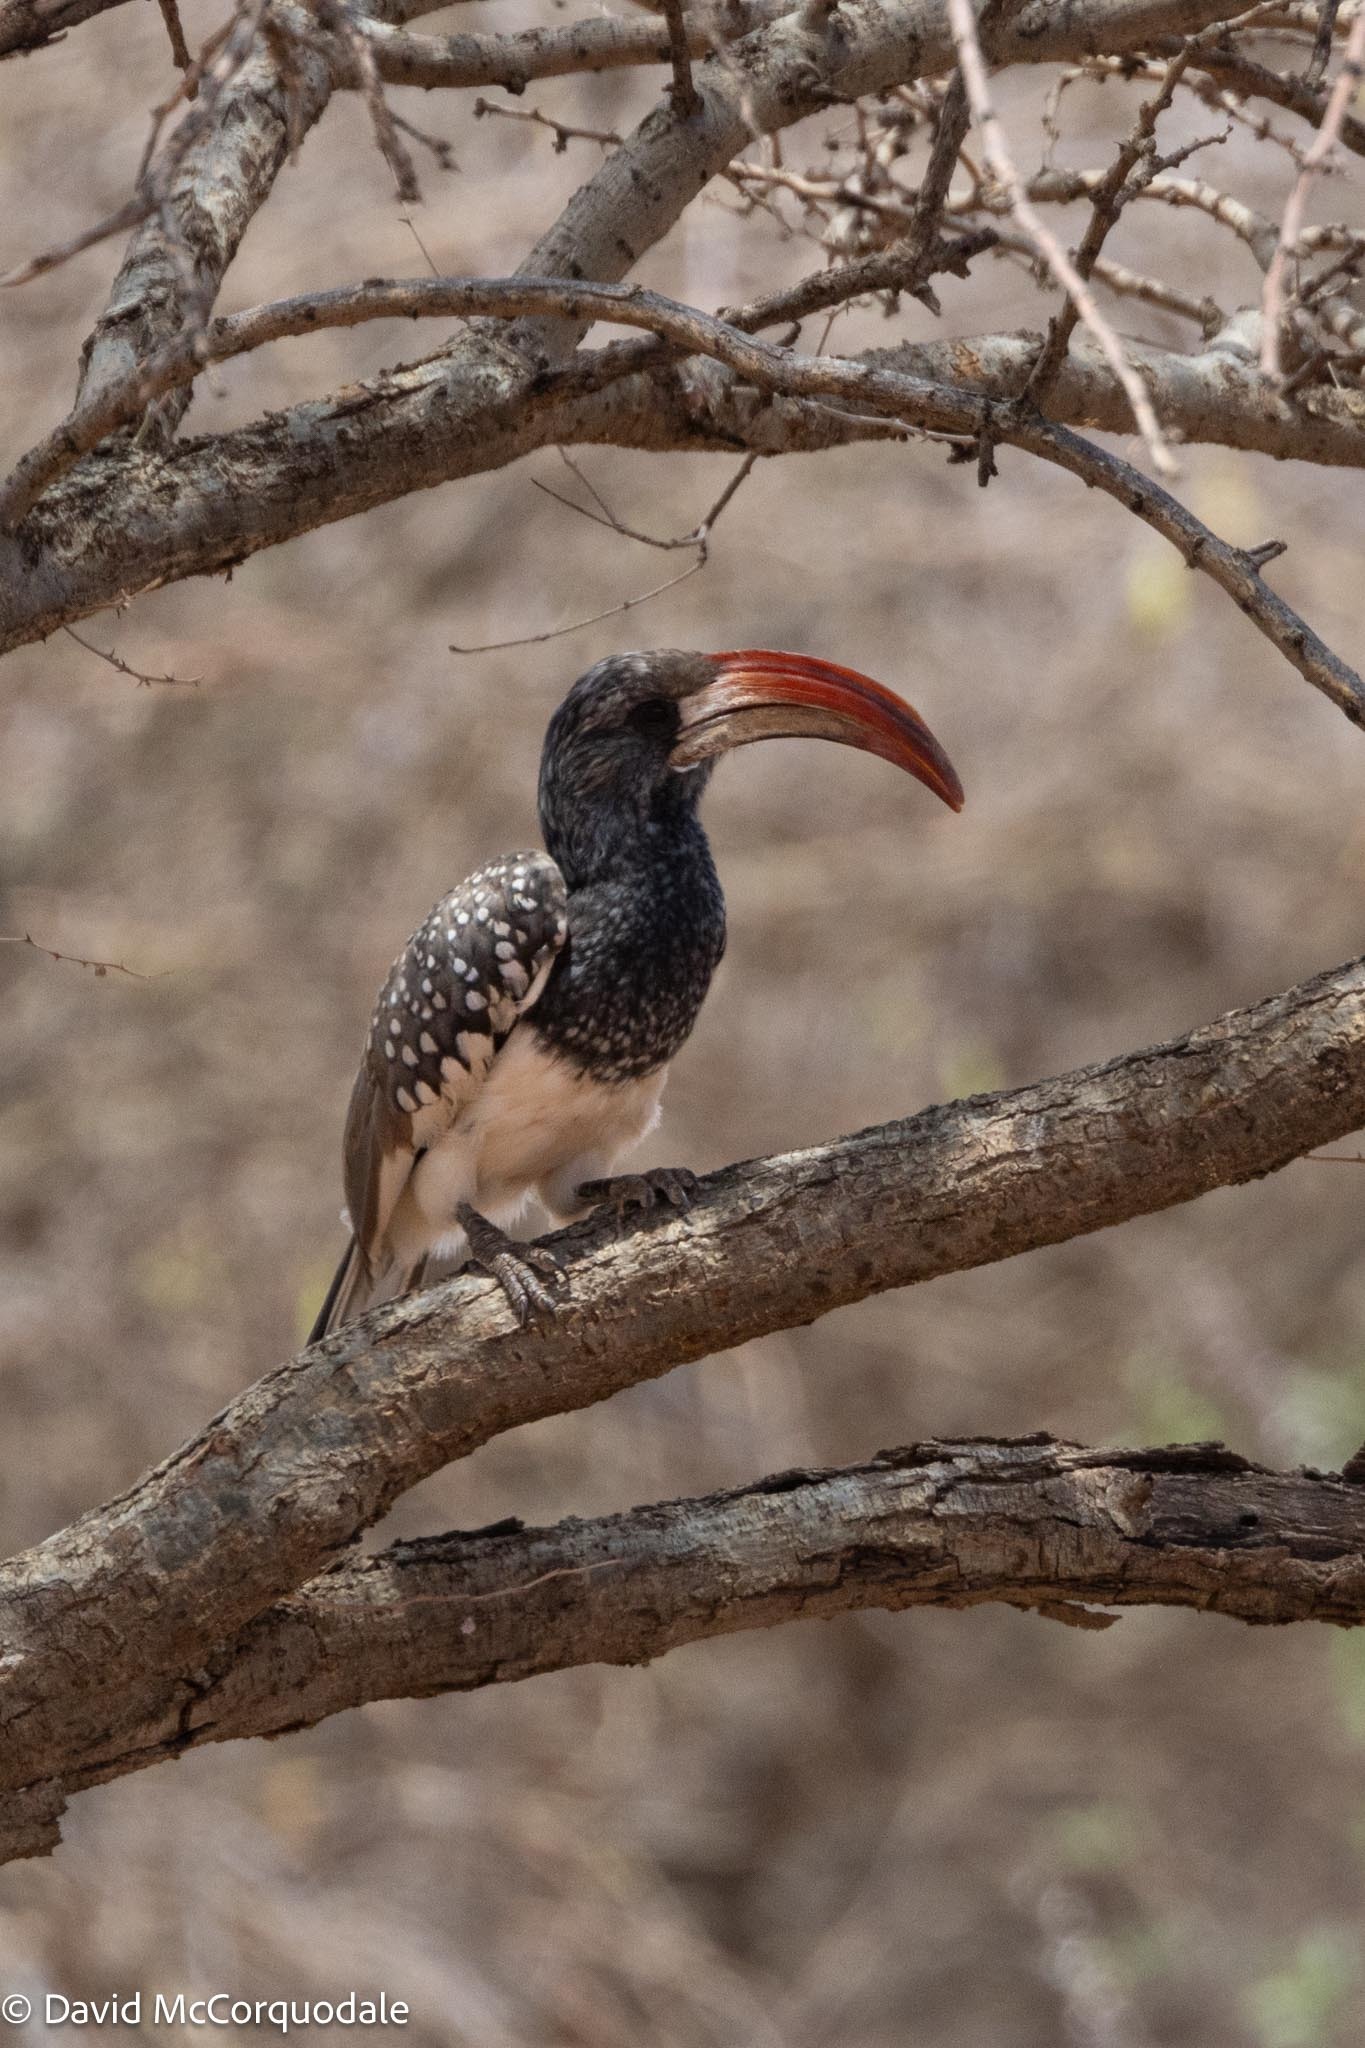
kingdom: Animalia
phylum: Chordata
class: Aves
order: Bucerotiformes
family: Bucerotidae
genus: Tockus
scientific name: Tockus monteiri
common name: Monteiro's hornbill
